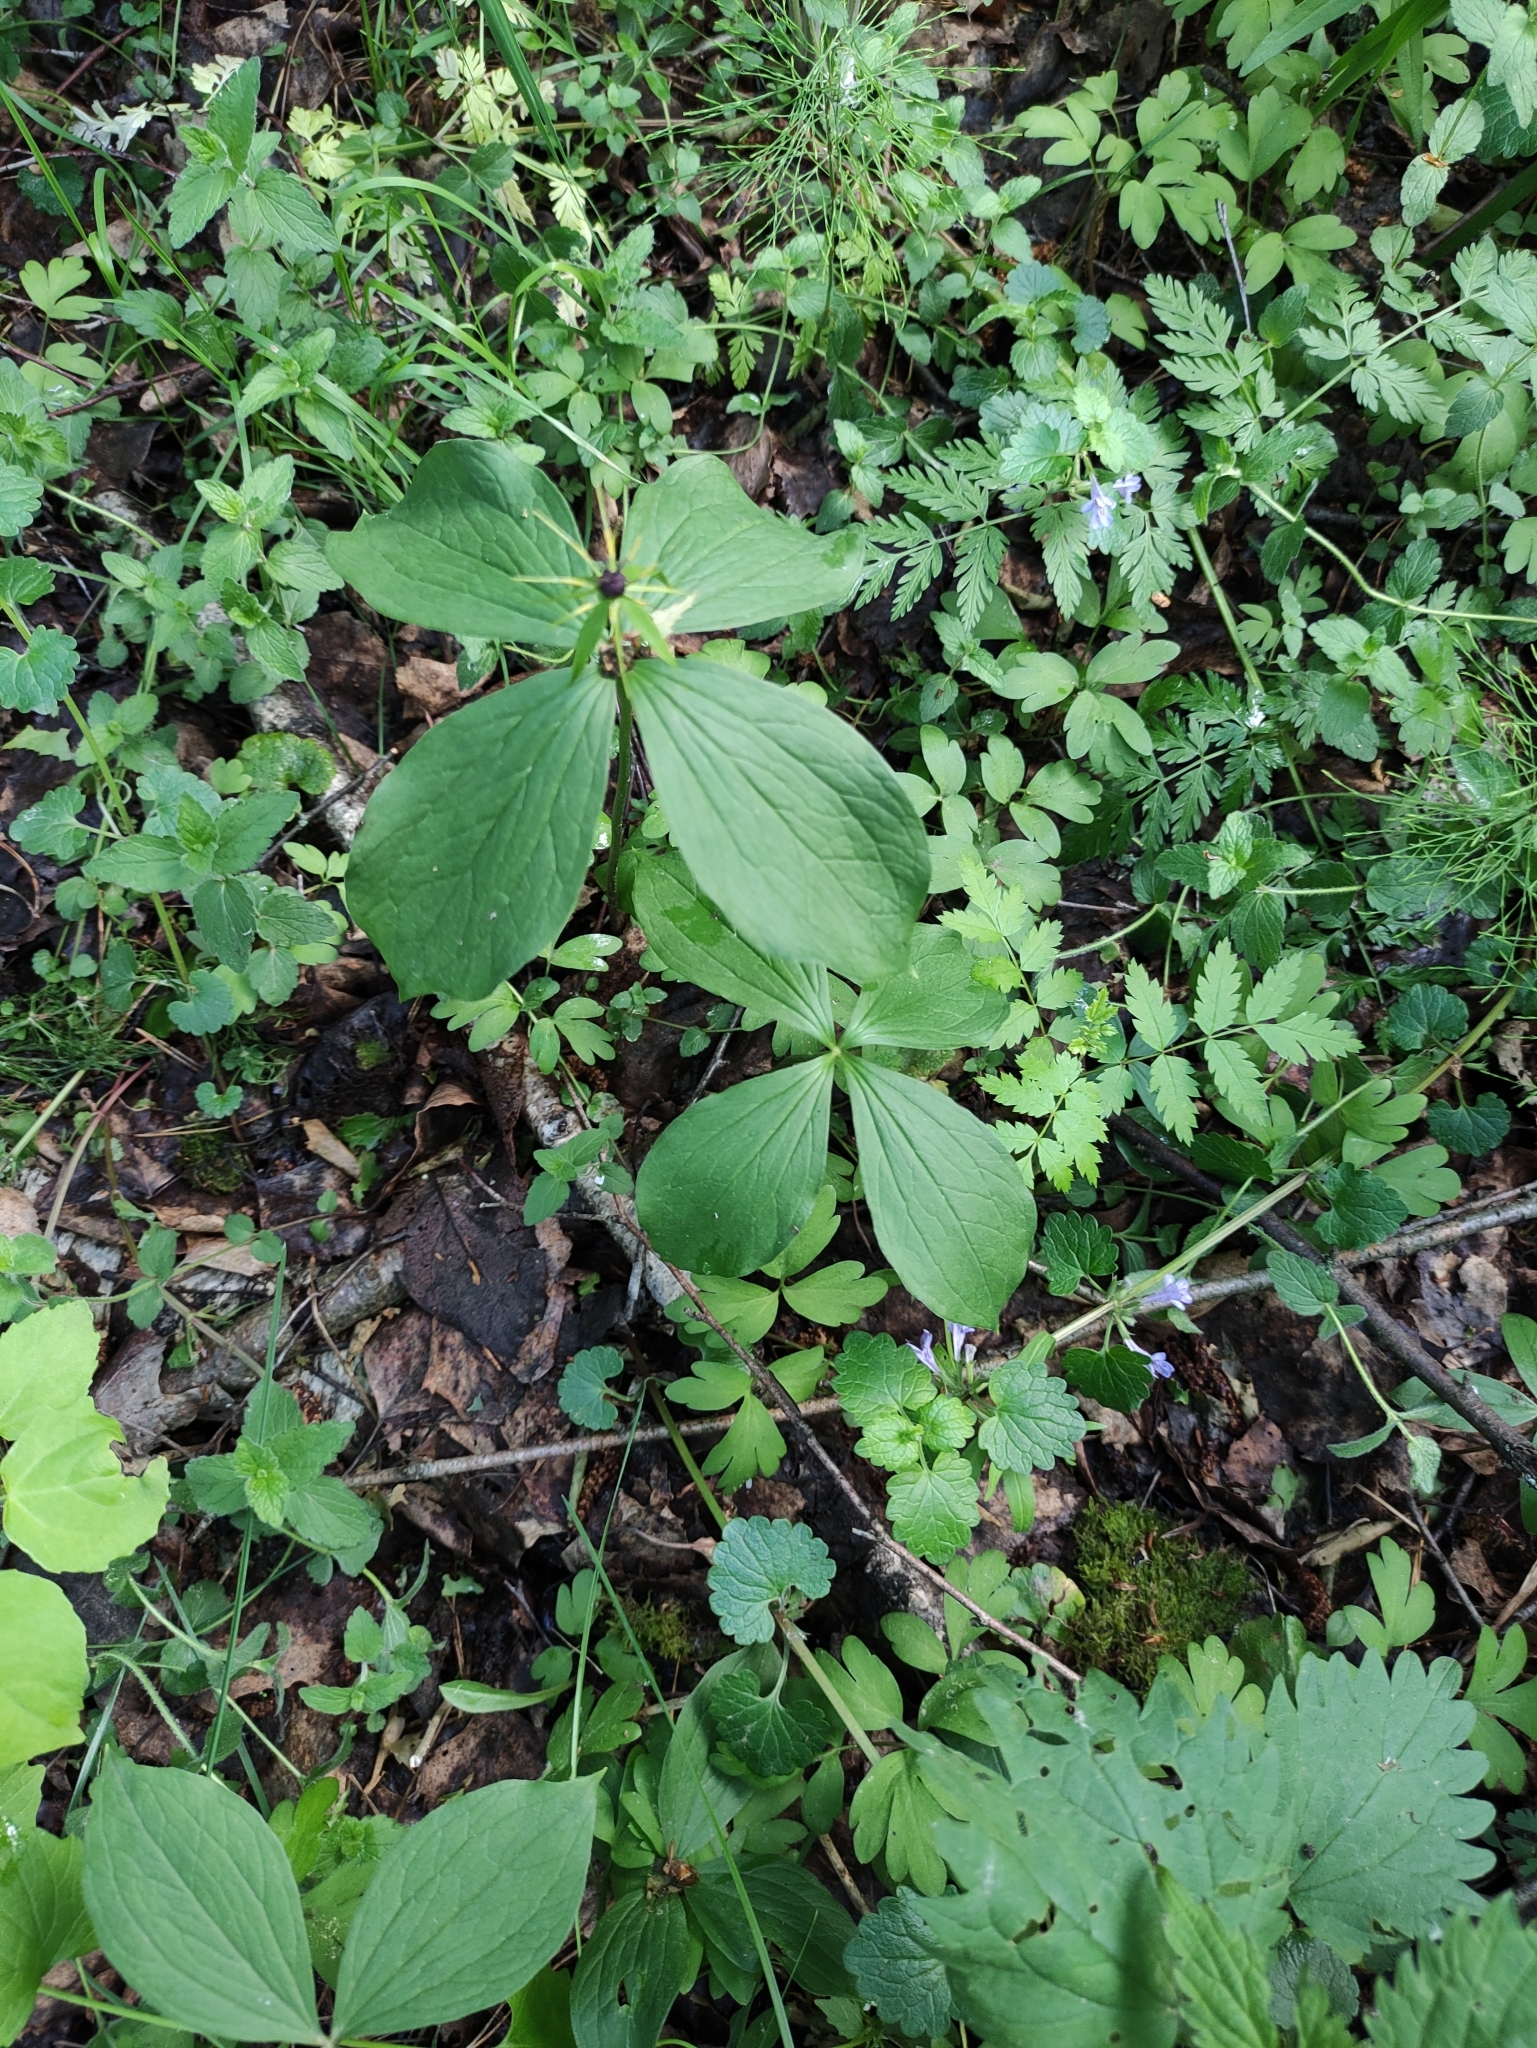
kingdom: Plantae
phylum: Tracheophyta
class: Liliopsida
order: Liliales
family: Melanthiaceae
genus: Paris
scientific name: Paris quadrifolia
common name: Herb-paris
